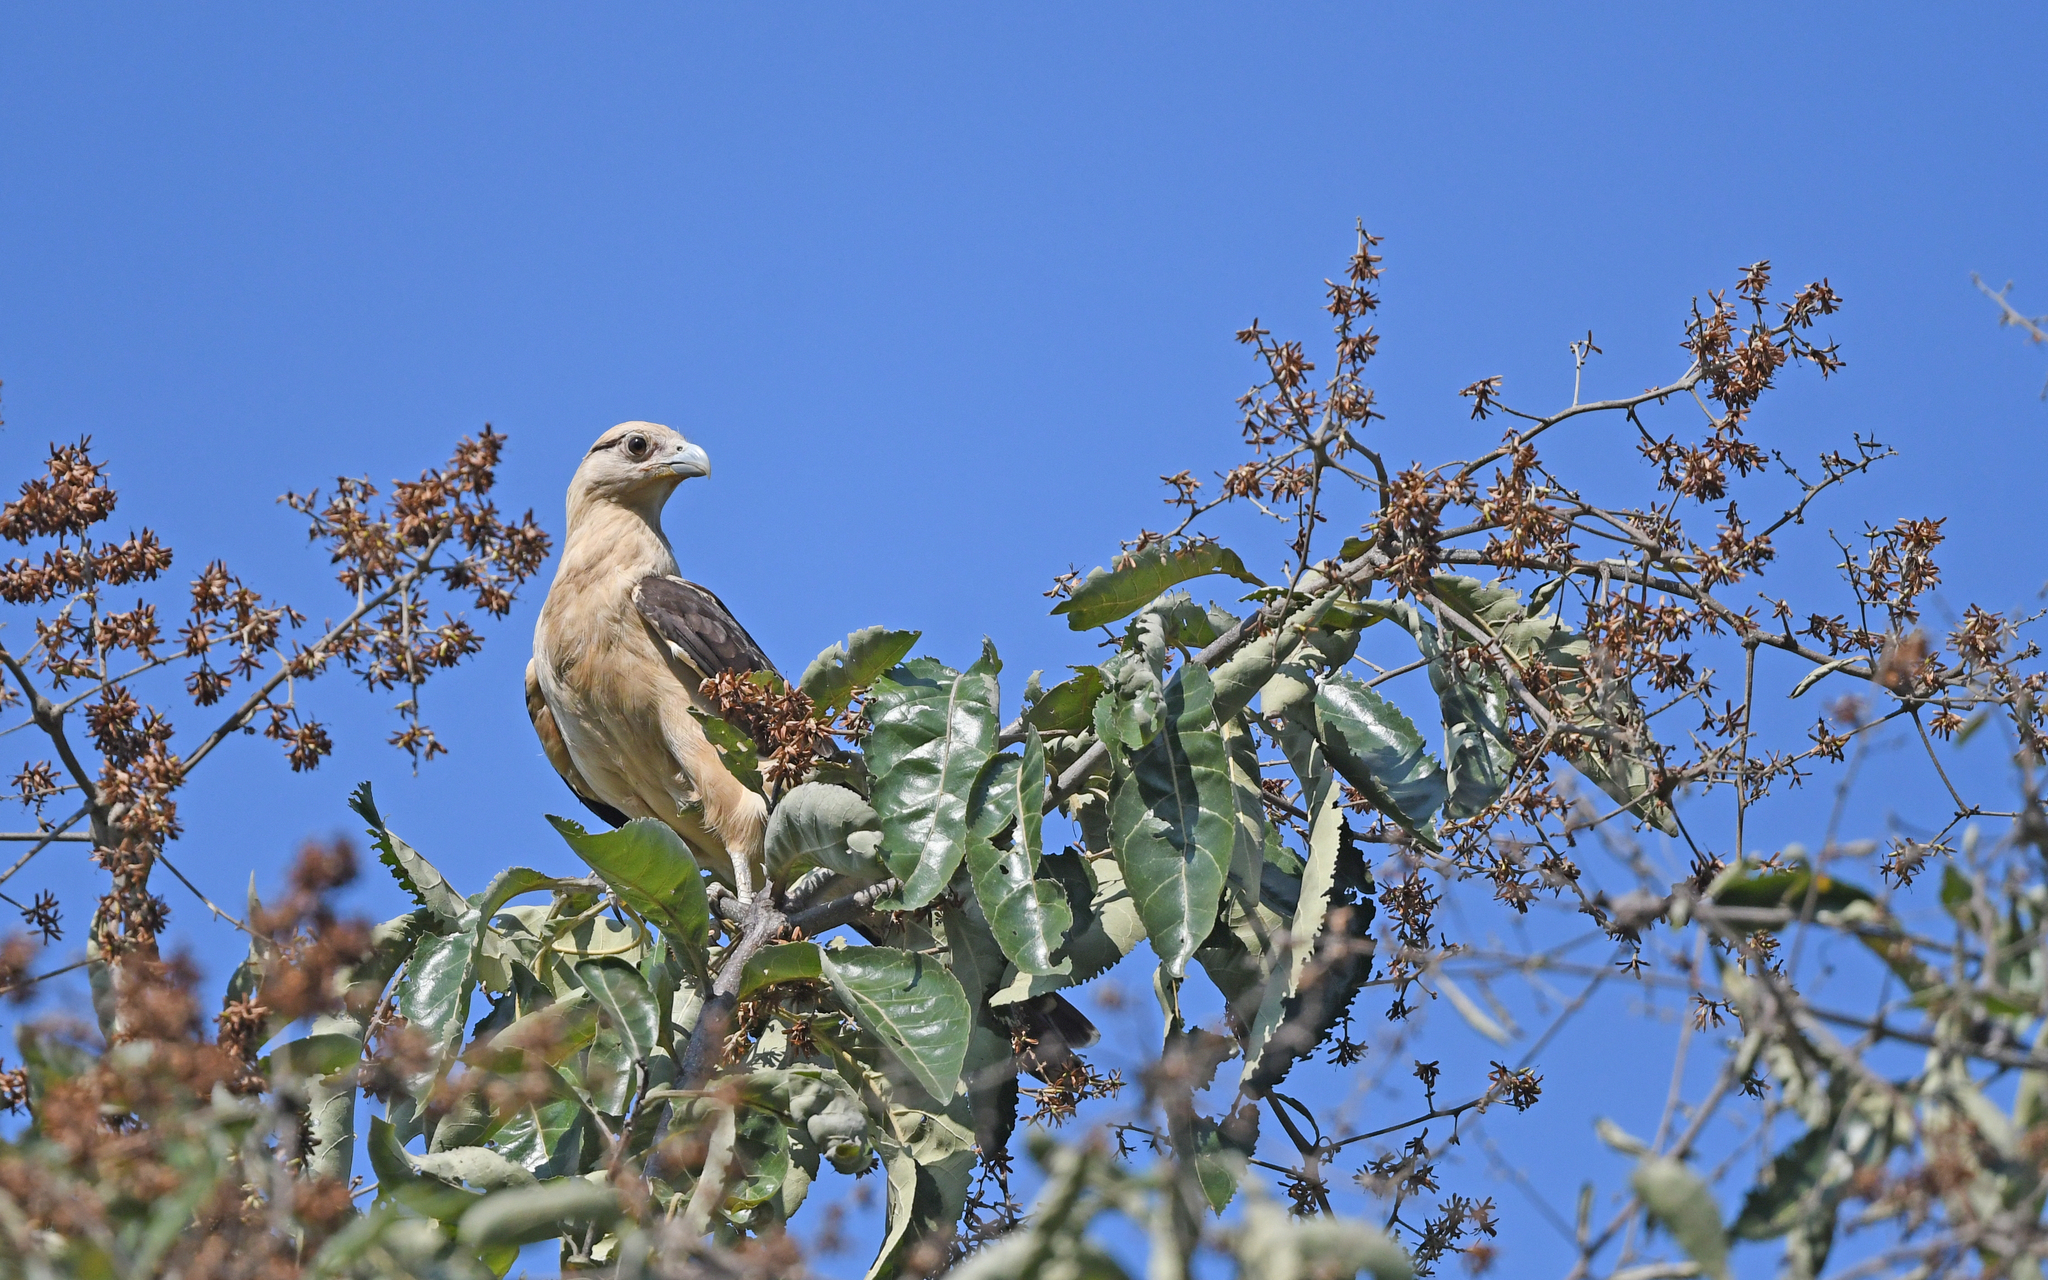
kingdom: Animalia
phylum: Chordata
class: Aves
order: Falconiformes
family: Falconidae
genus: Daptrius
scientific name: Daptrius
